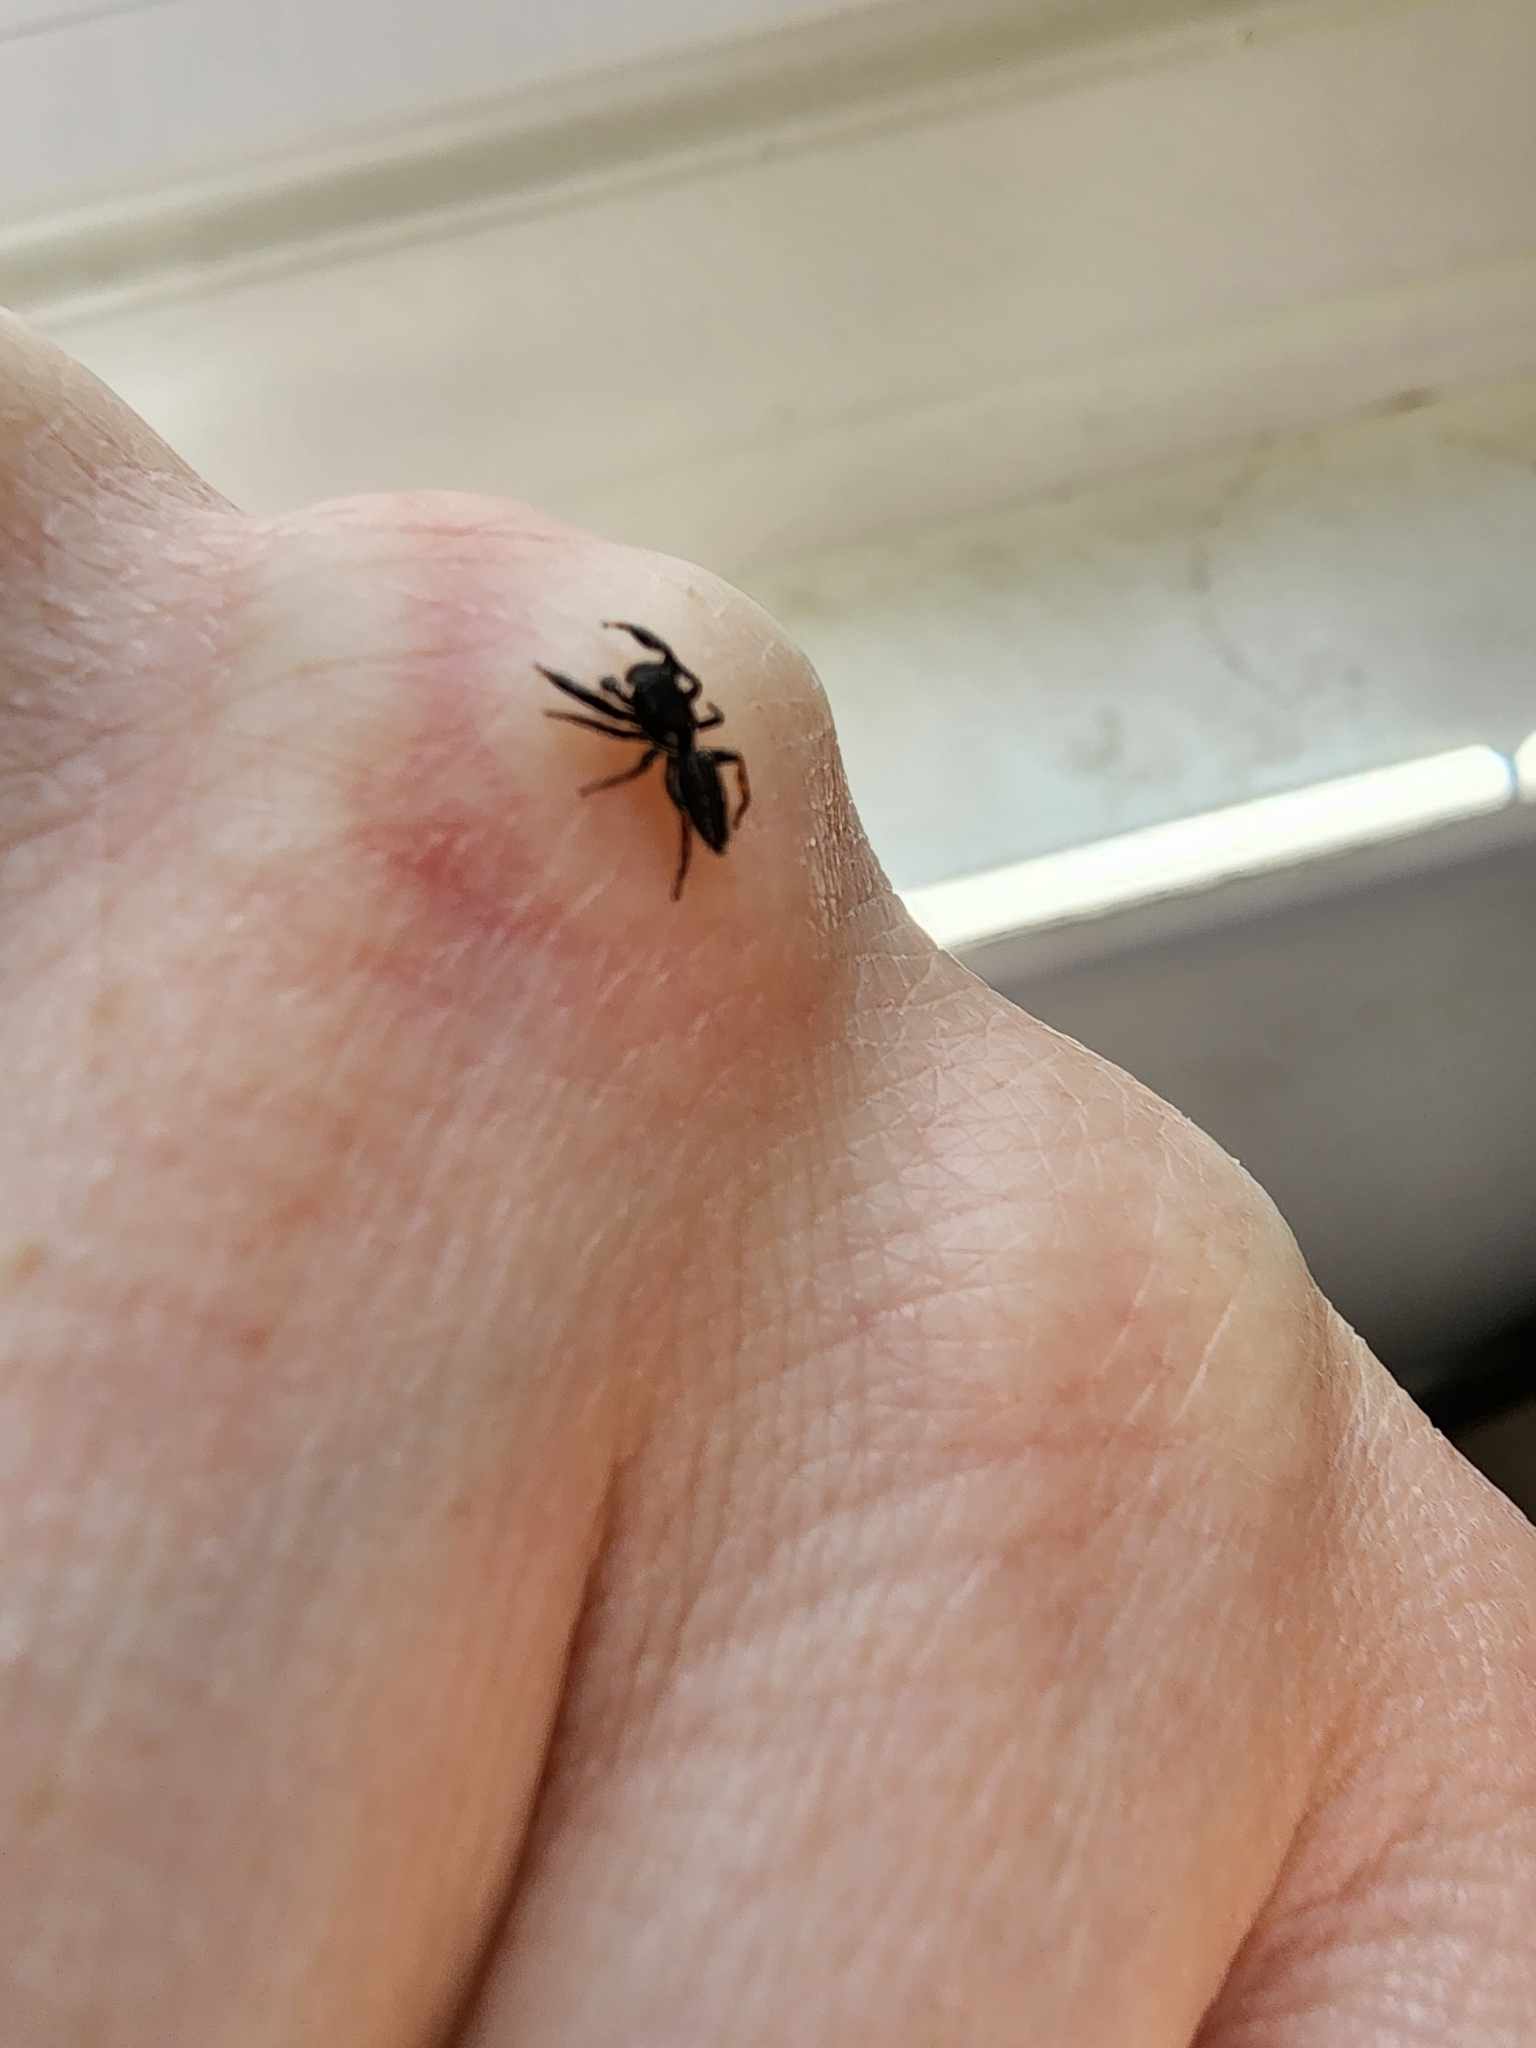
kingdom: Animalia
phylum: Arthropoda
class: Arachnida
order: Araneae
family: Salticidae
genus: Metacyrba
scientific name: Metacyrba taeniola
